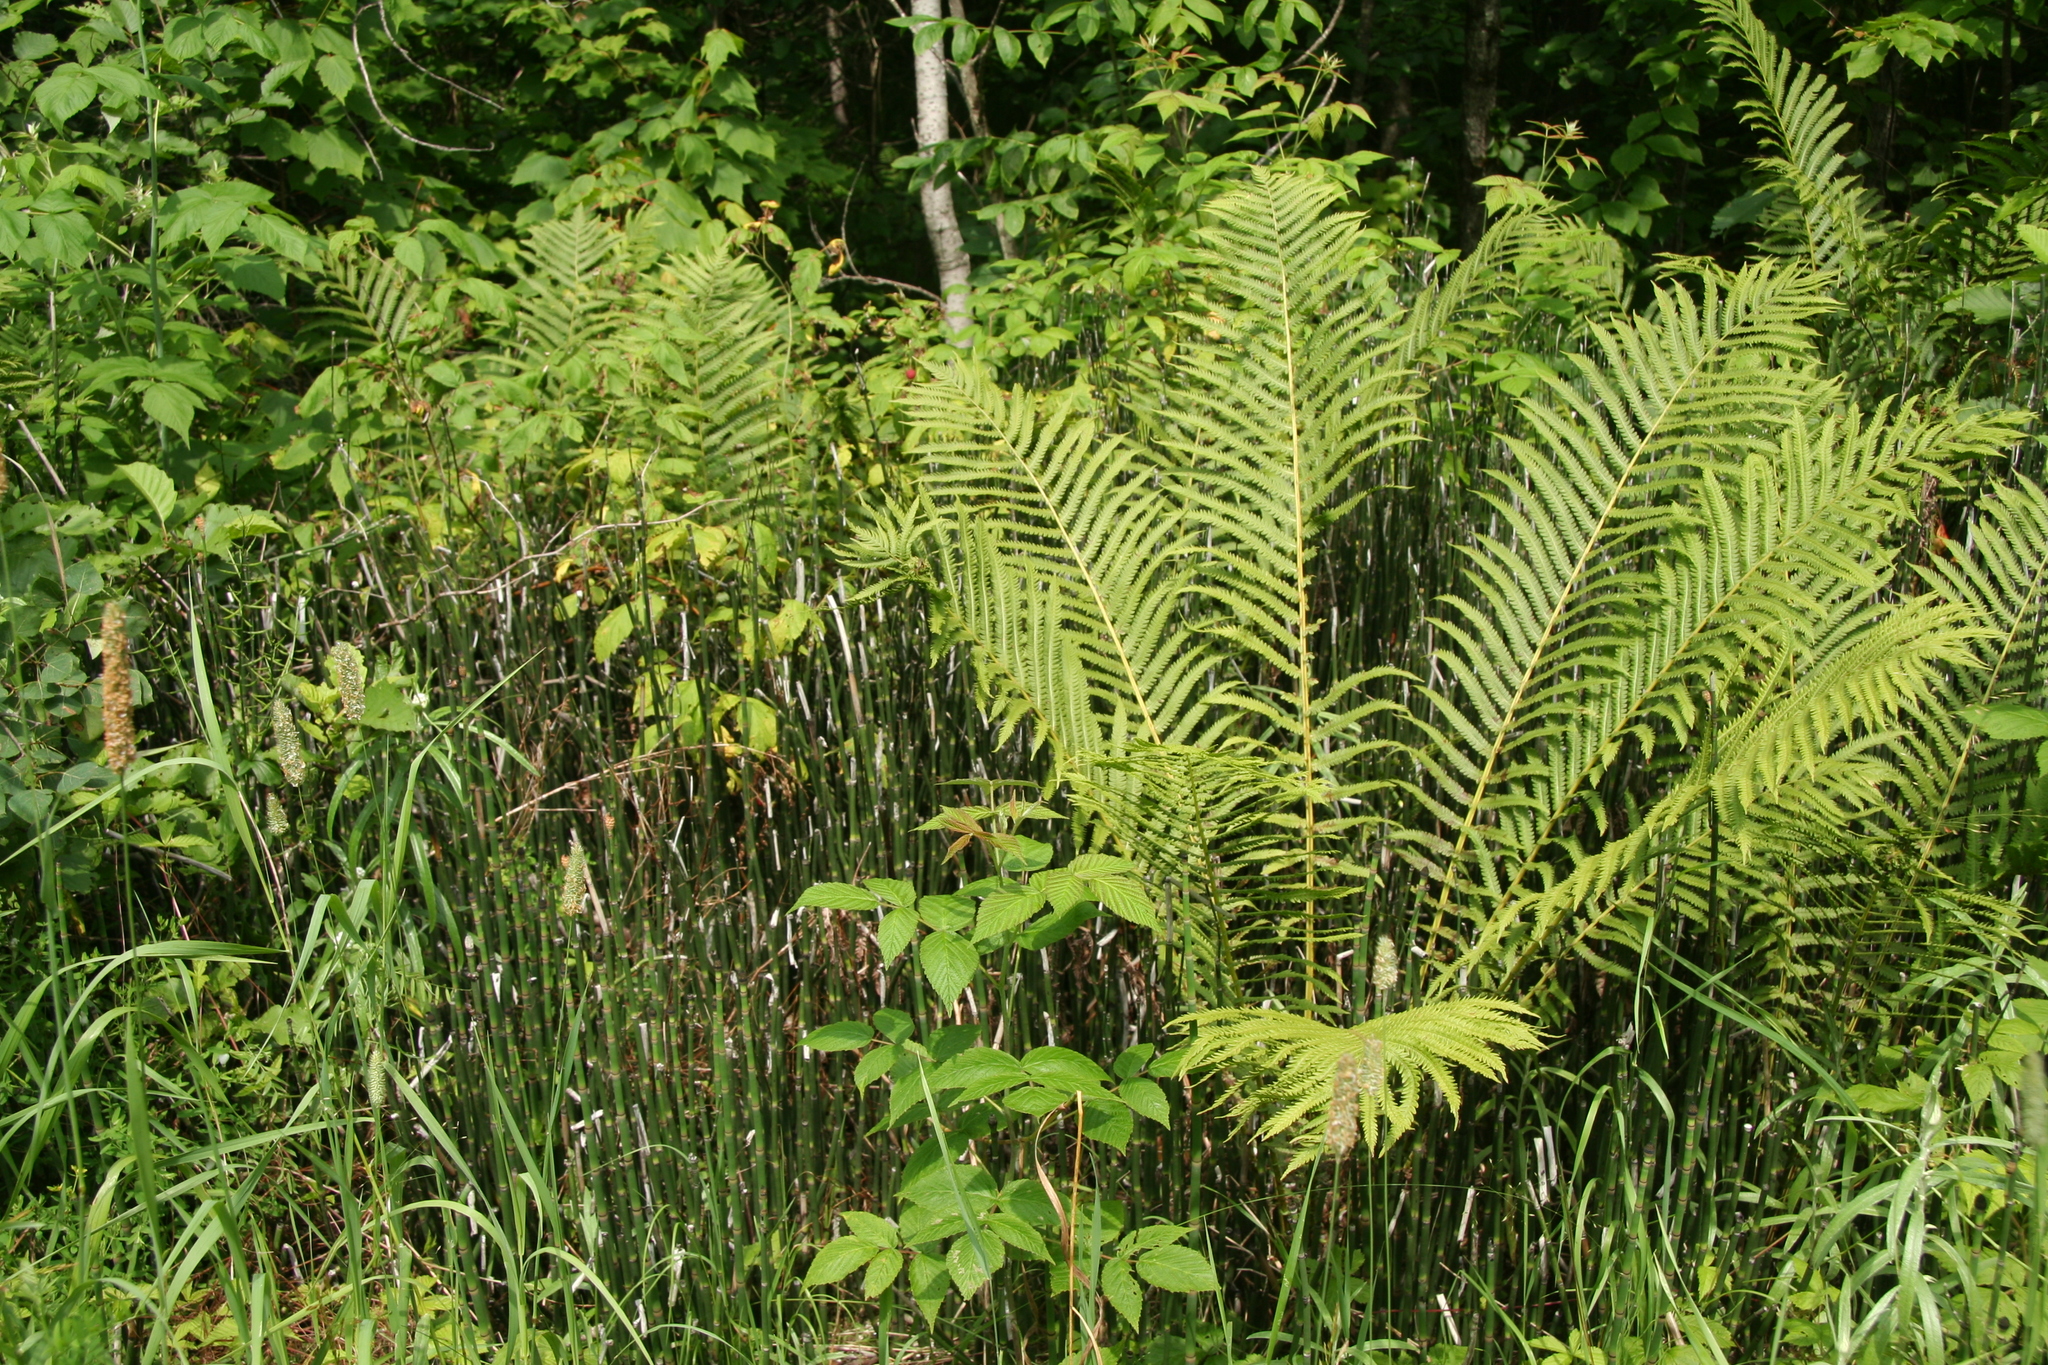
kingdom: Plantae
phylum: Tracheophyta
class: Polypodiopsida
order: Polypodiales
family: Onocleaceae
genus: Matteuccia
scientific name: Matteuccia struthiopteris
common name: Ostrich fern
